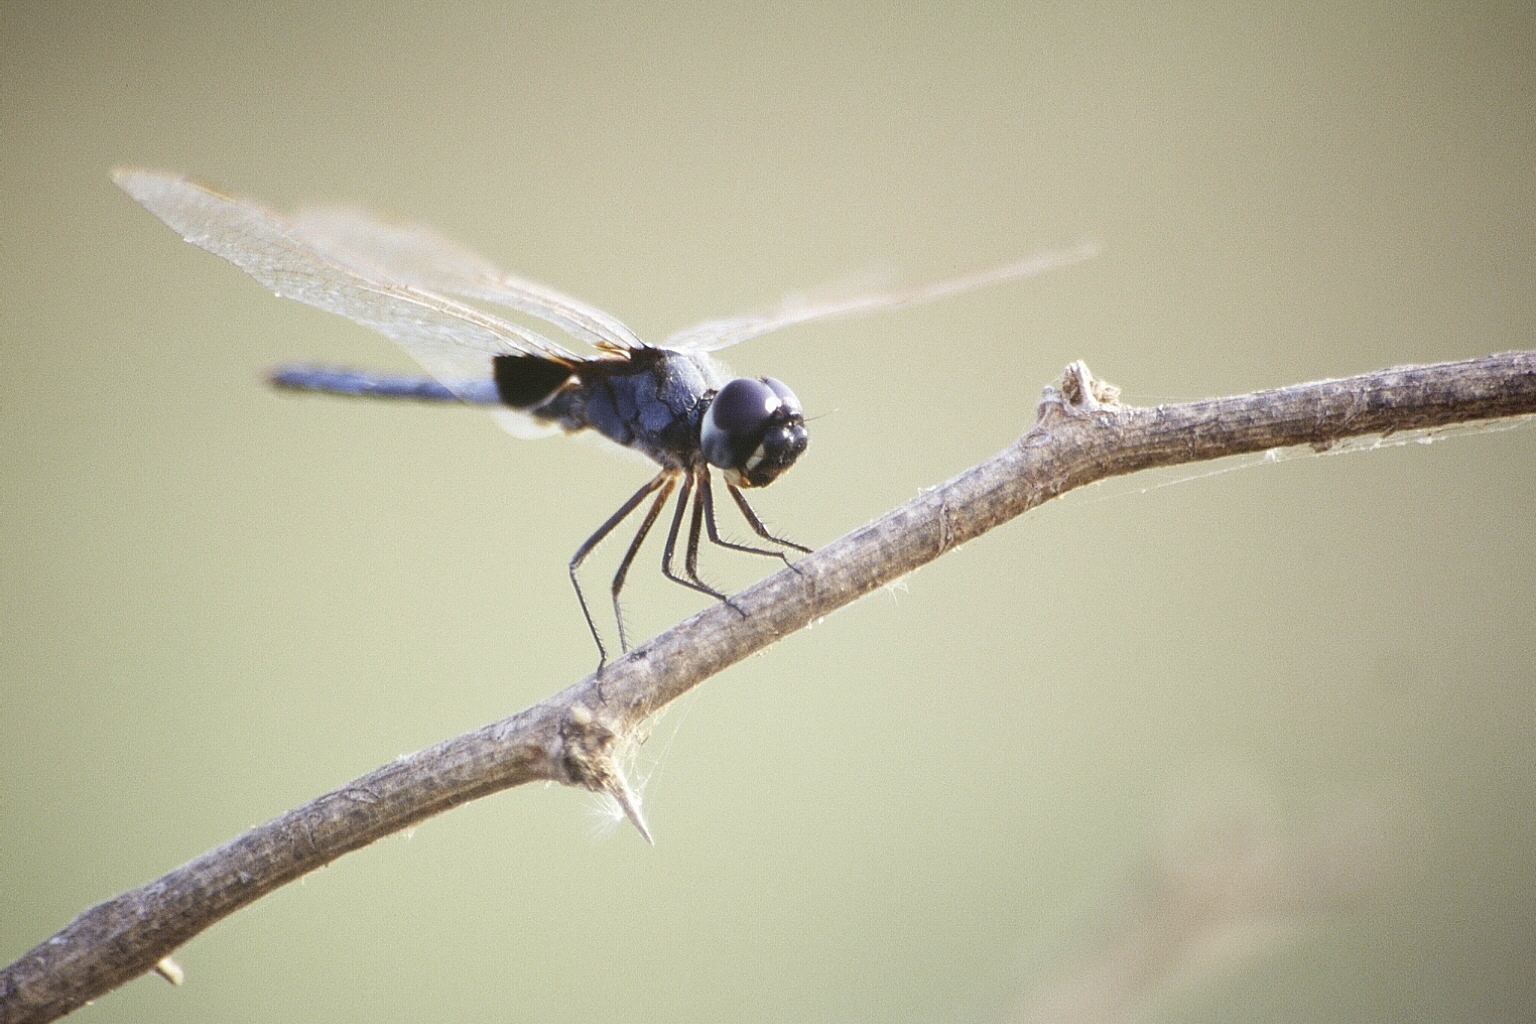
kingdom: Animalia
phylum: Arthropoda
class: Insecta
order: Odonata
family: Libellulidae
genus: Urothemis
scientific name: Urothemis edwardsii
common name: Blue basker
